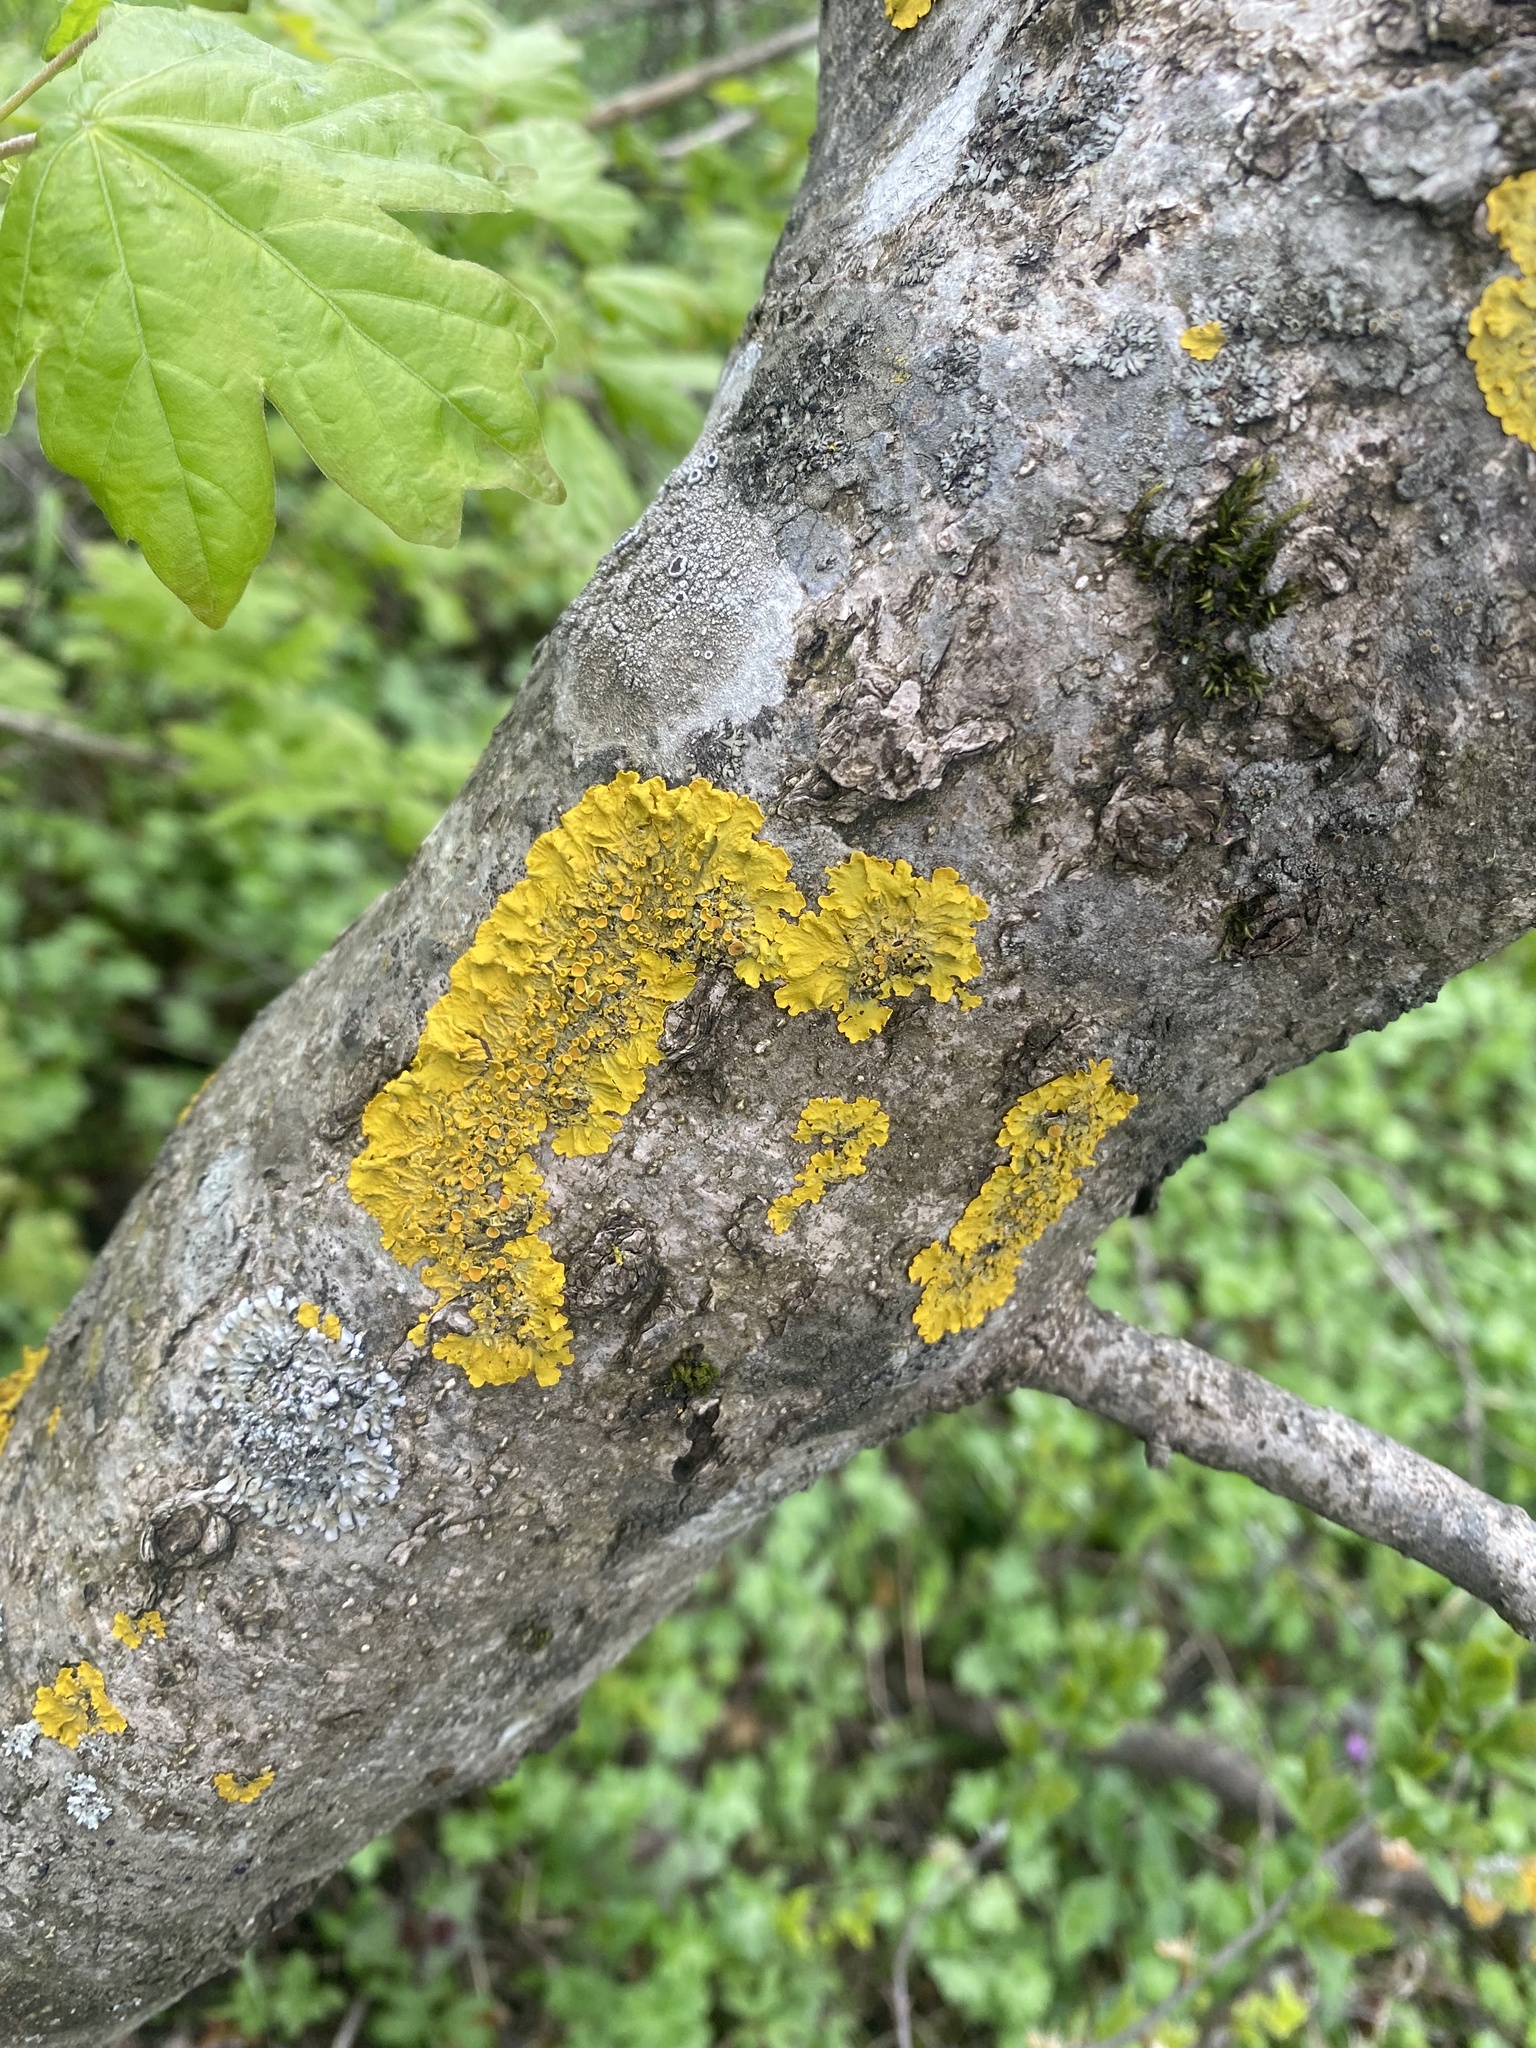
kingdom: Fungi
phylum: Ascomycota
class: Lecanoromycetes
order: Teloschistales
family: Teloschistaceae
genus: Xanthoria
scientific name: Xanthoria parietina
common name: Common orange lichen
